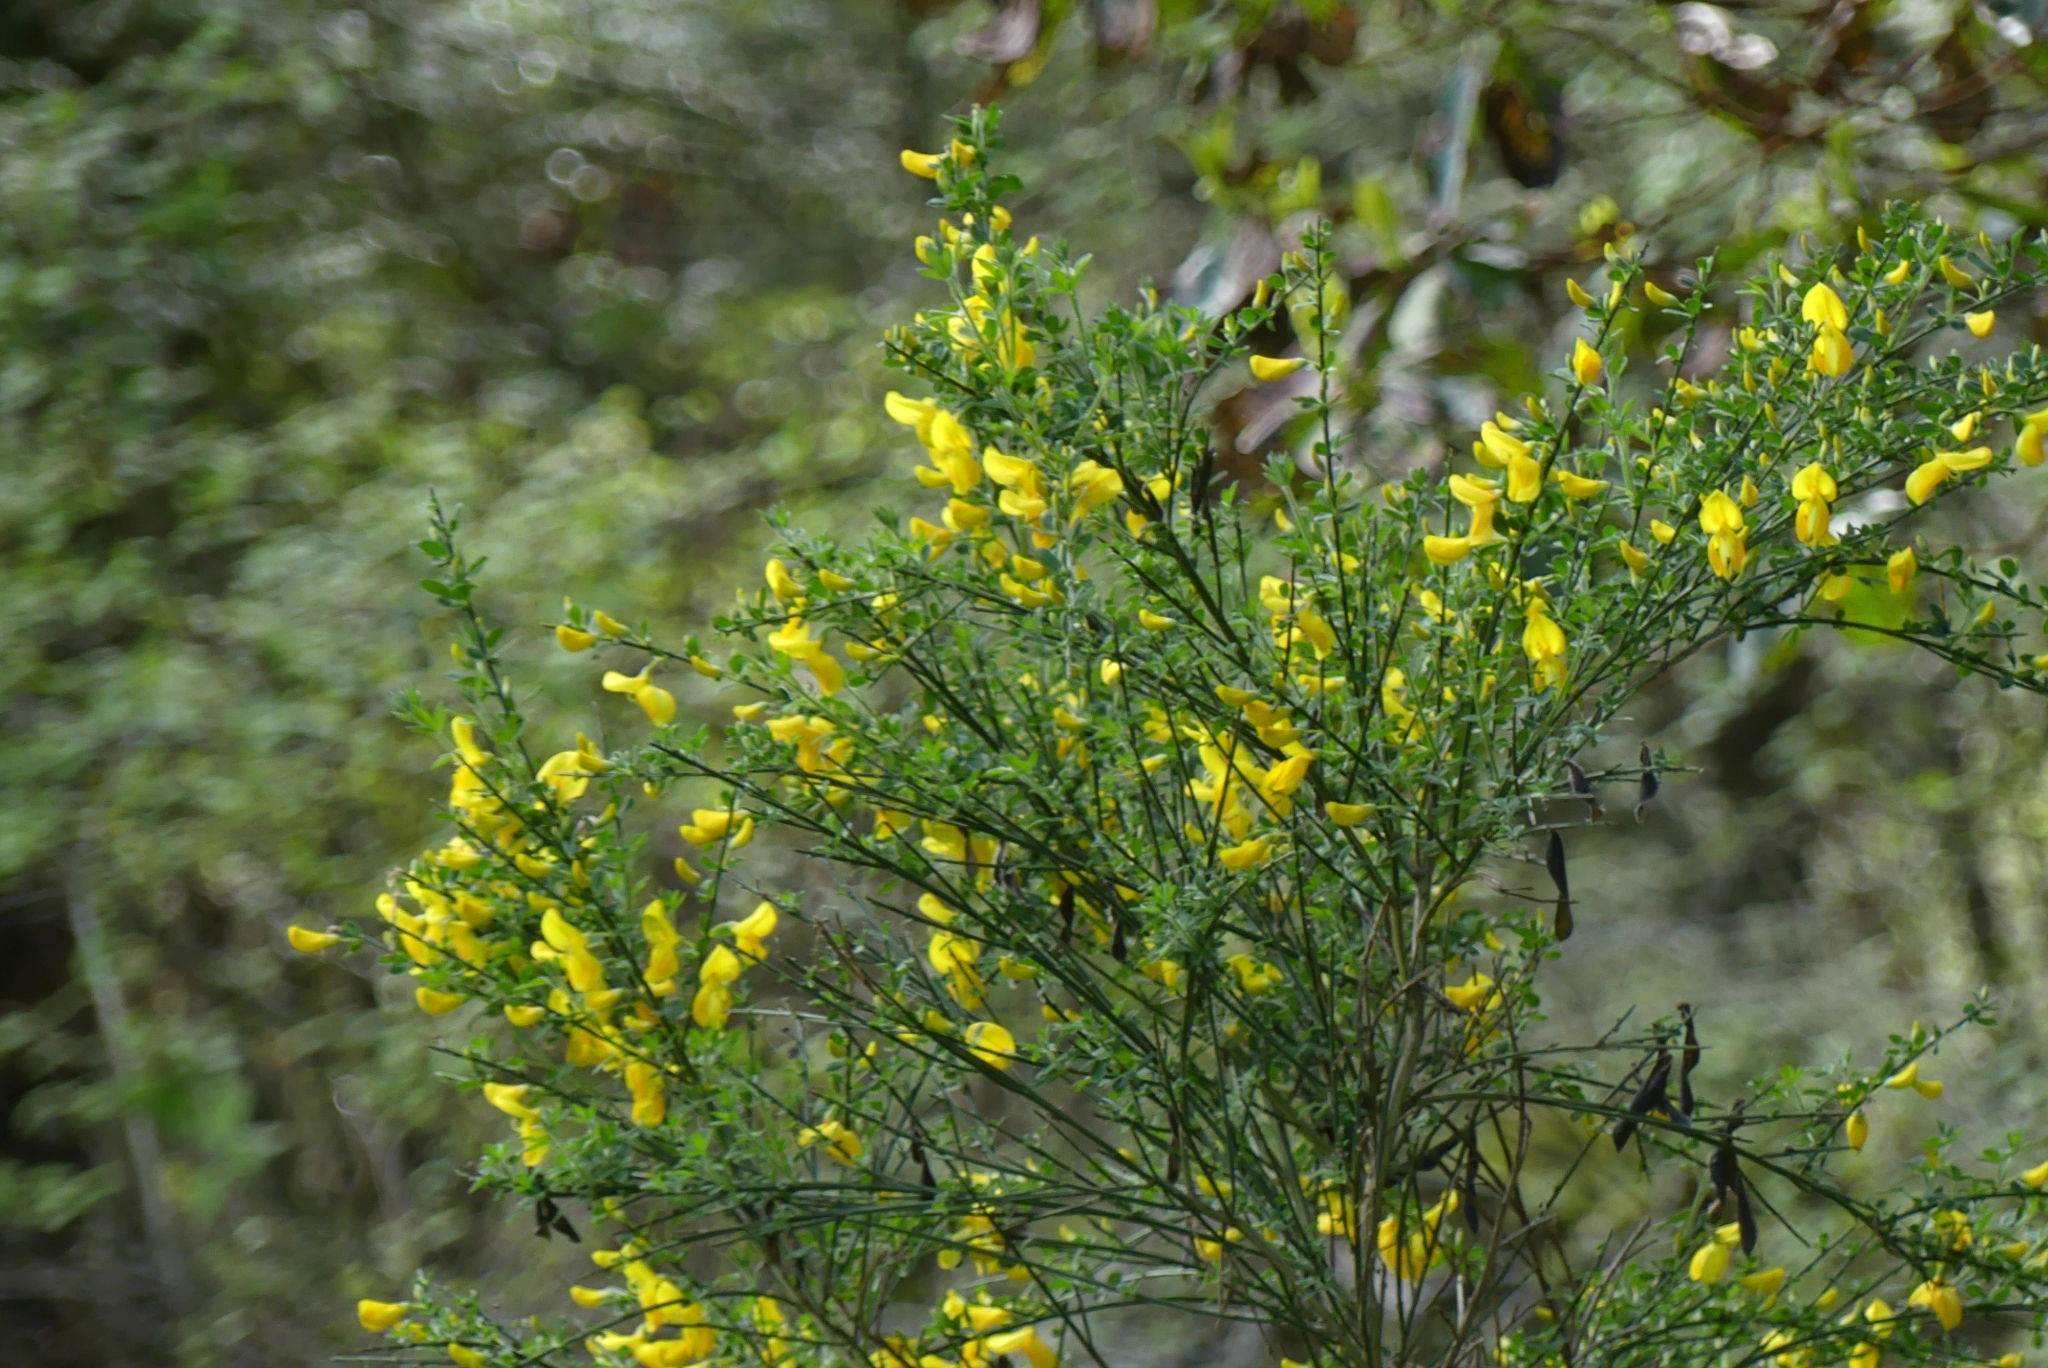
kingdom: Plantae
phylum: Tracheophyta
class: Magnoliopsida
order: Fabales
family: Fabaceae
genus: Cytisus
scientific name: Cytisus scoparius
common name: Scotch broom
